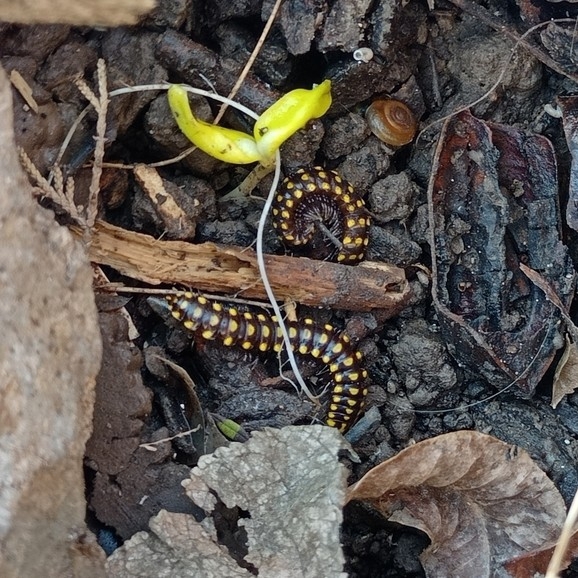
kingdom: Animalia
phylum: Arthropoda
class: Diplopoda
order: Polydesmida
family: Xystodesmidae
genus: Melaphe
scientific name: Melaphe vestita
